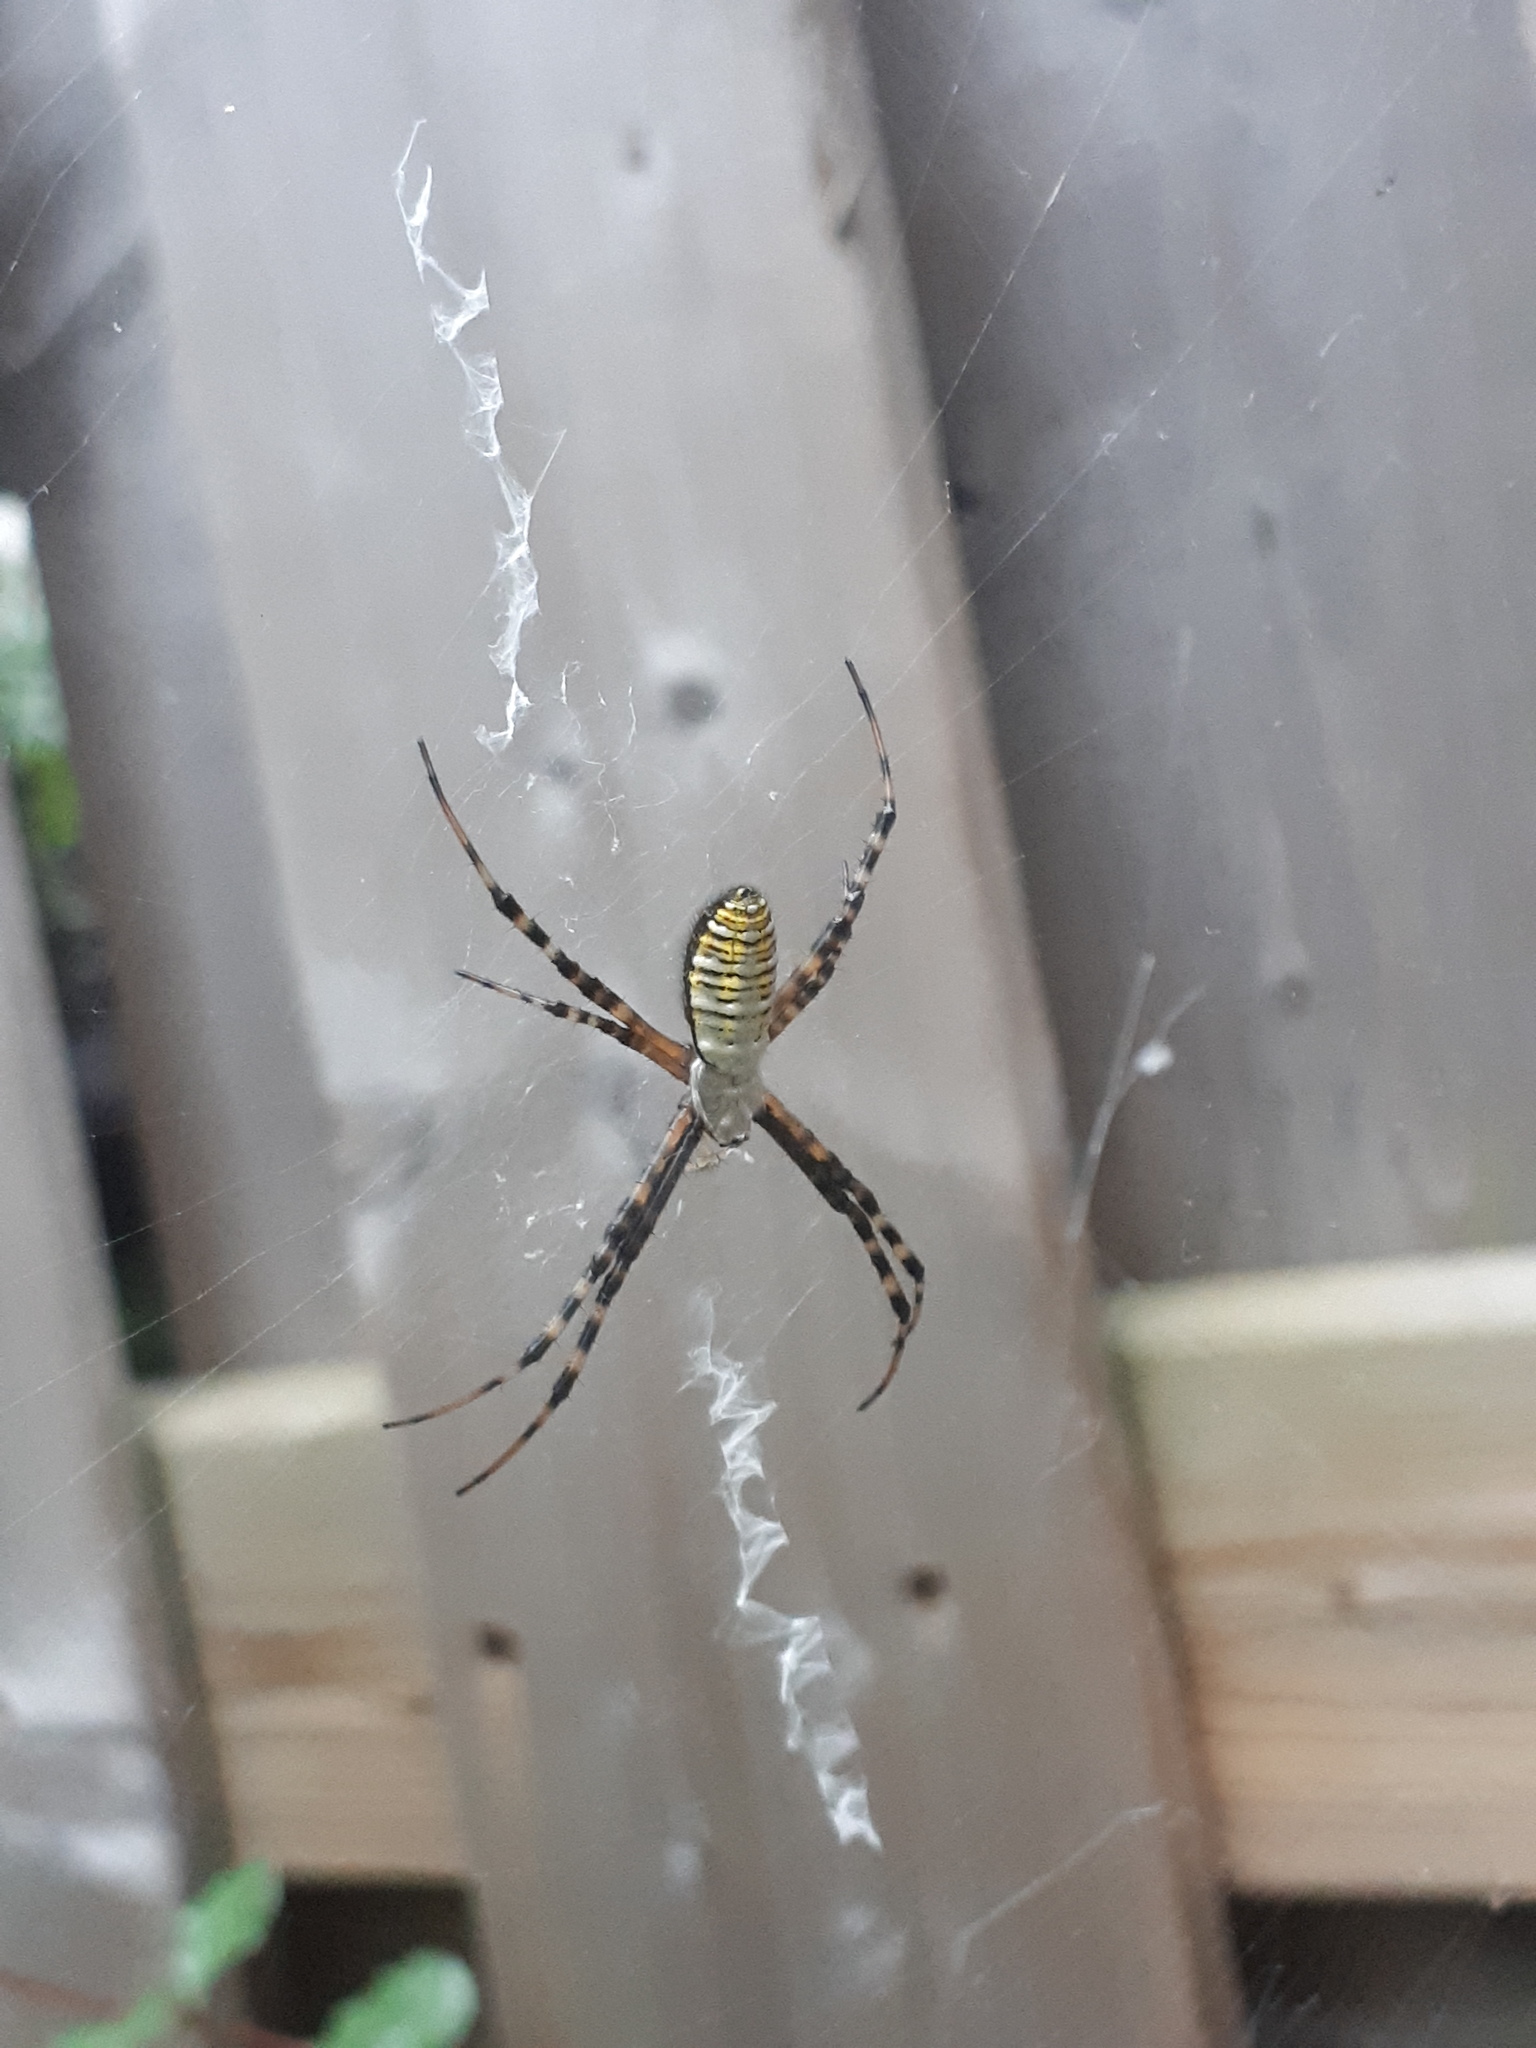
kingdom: Animalia
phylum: Arthropoda
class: Arachnida
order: Araneae
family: Araneidae
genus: Argiope
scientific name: Argiope trifasciata
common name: Banded garden spider
